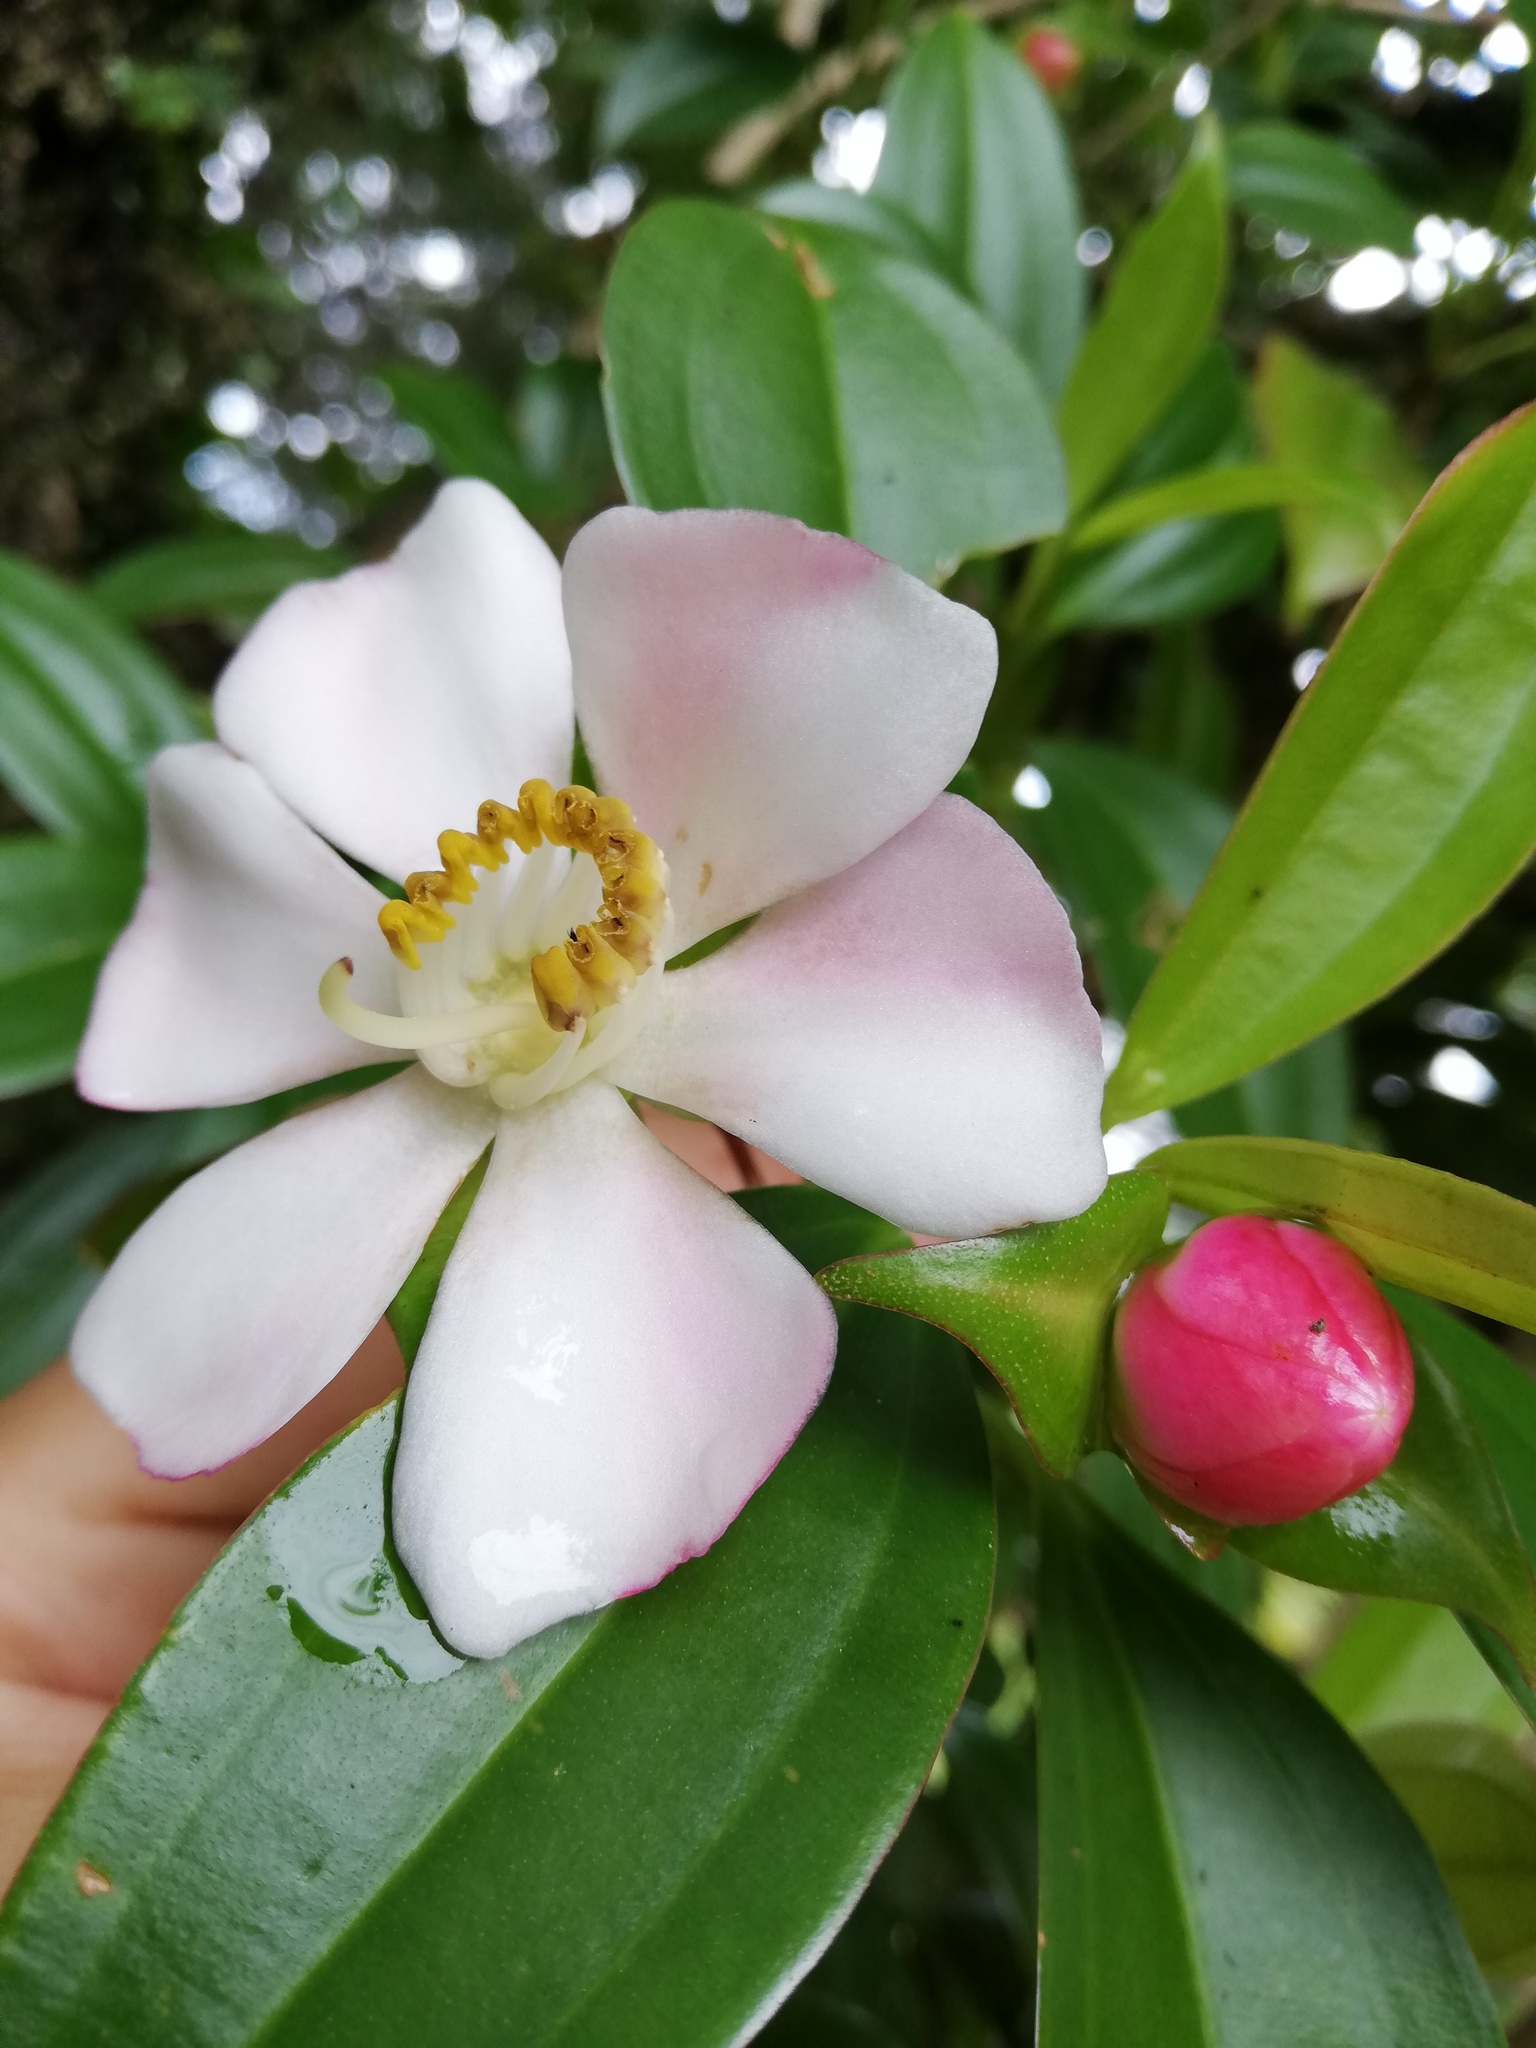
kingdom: Plantae
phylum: Tracheophyta
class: Magnoliopsida
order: Myrtales
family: Melastomataceae
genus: Blakea
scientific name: Blakea gracilis
